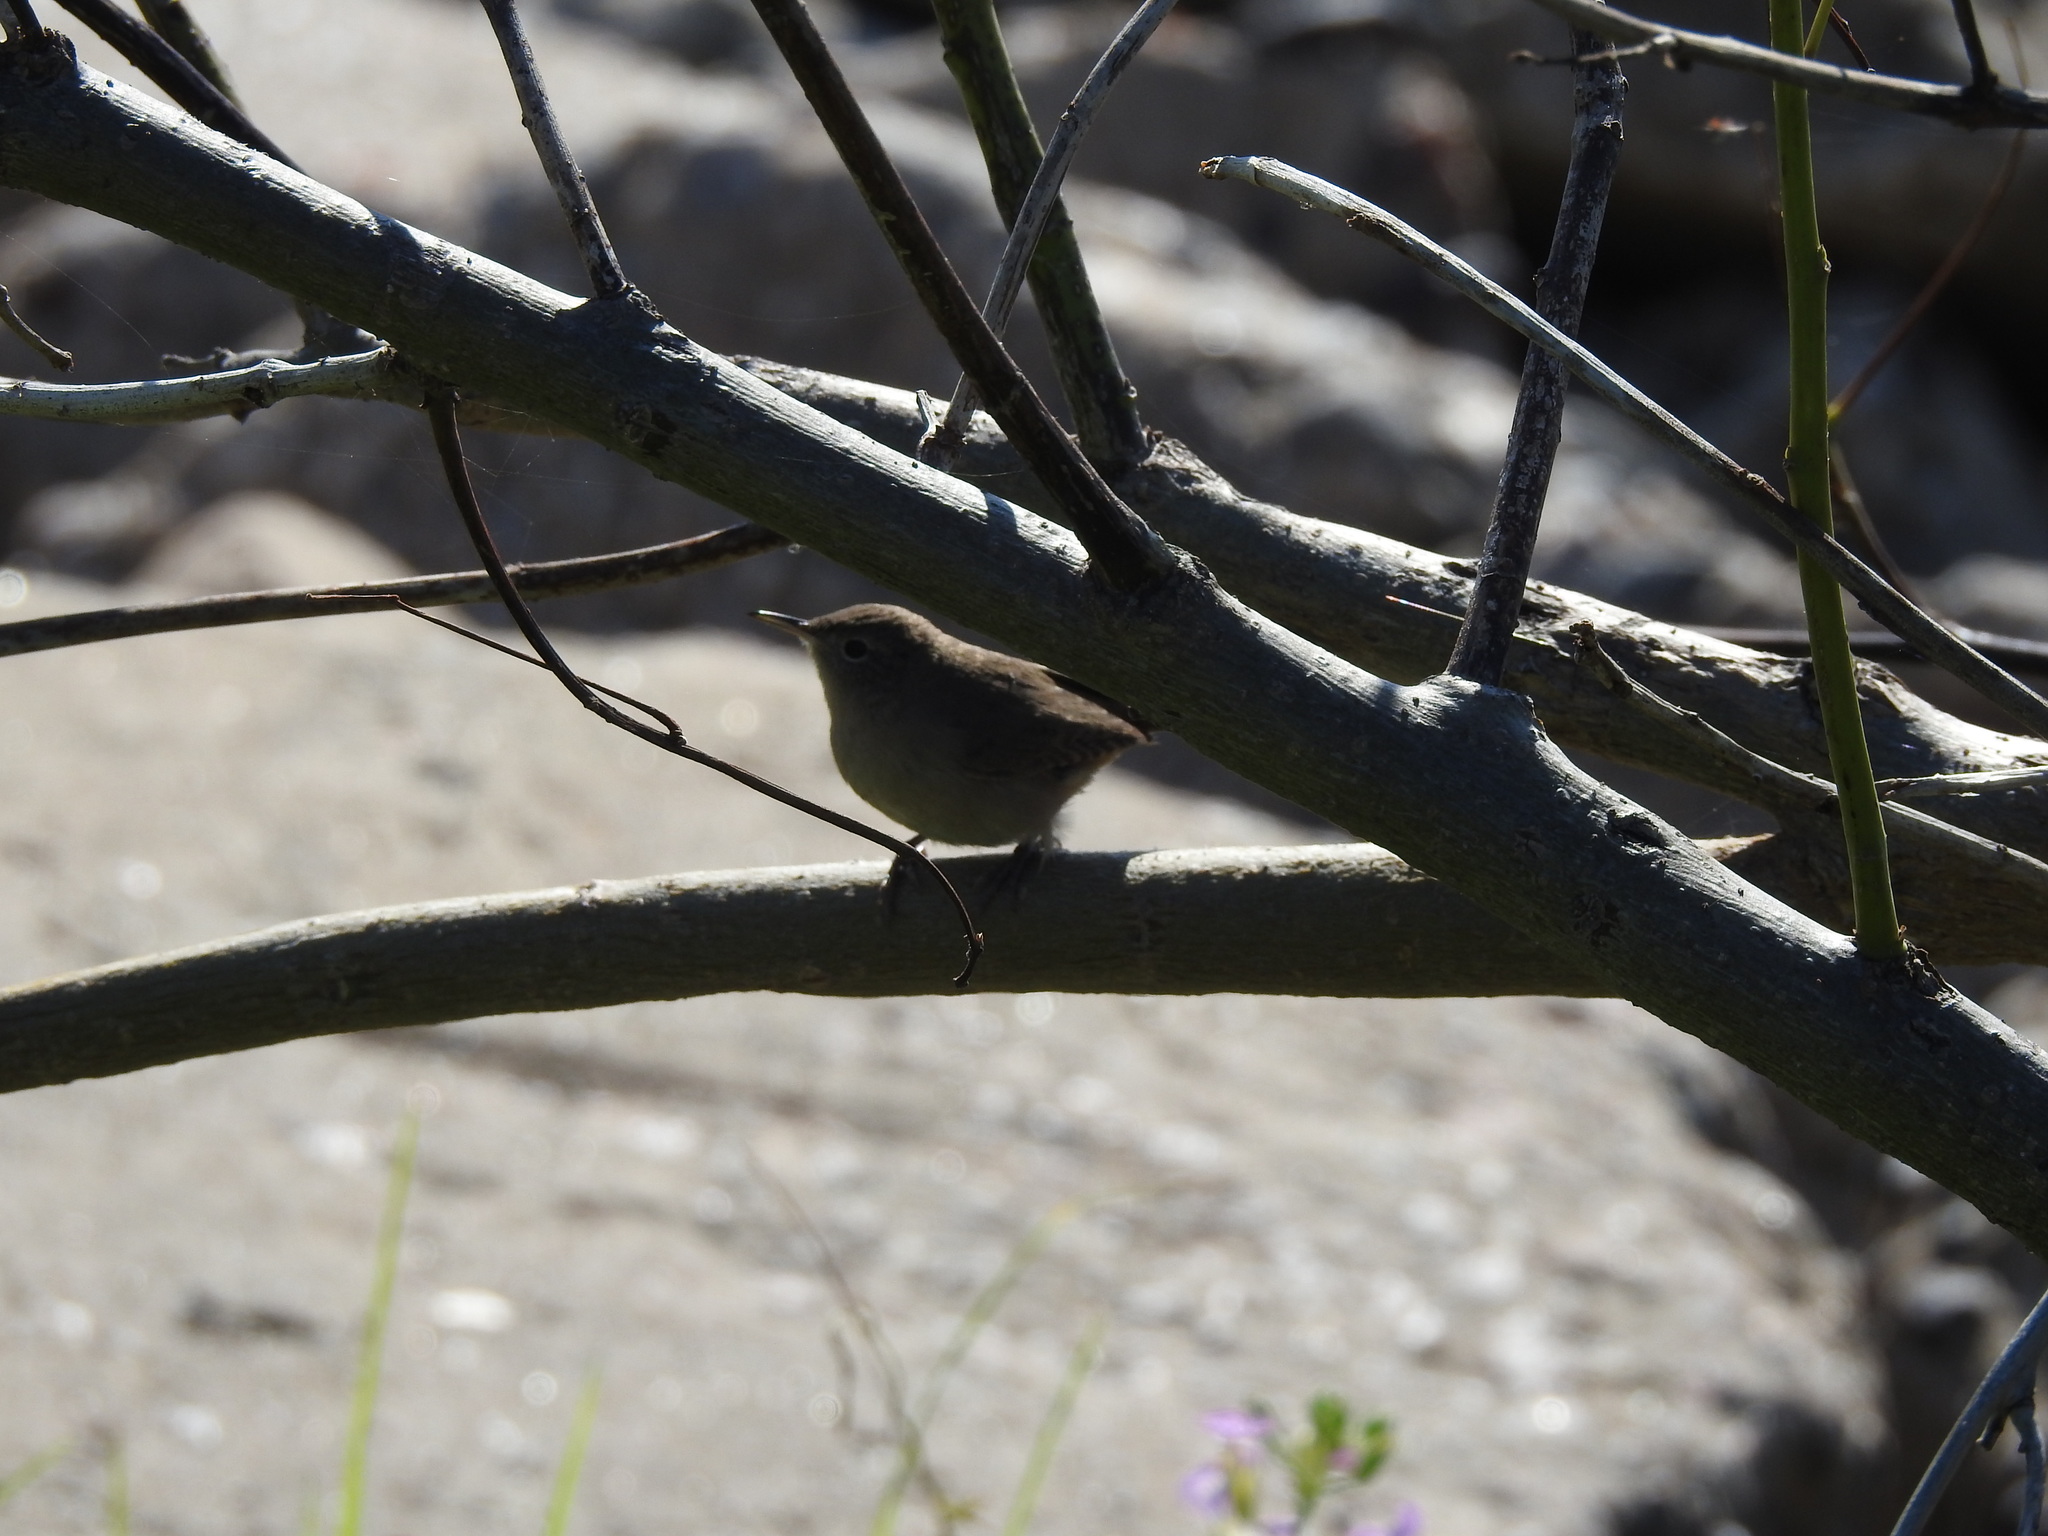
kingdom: Animalia
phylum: Chordata
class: Aves
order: Passeriformes
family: Troglodytidae
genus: Troglodytes
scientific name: Troglodytes aedon
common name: House wren
